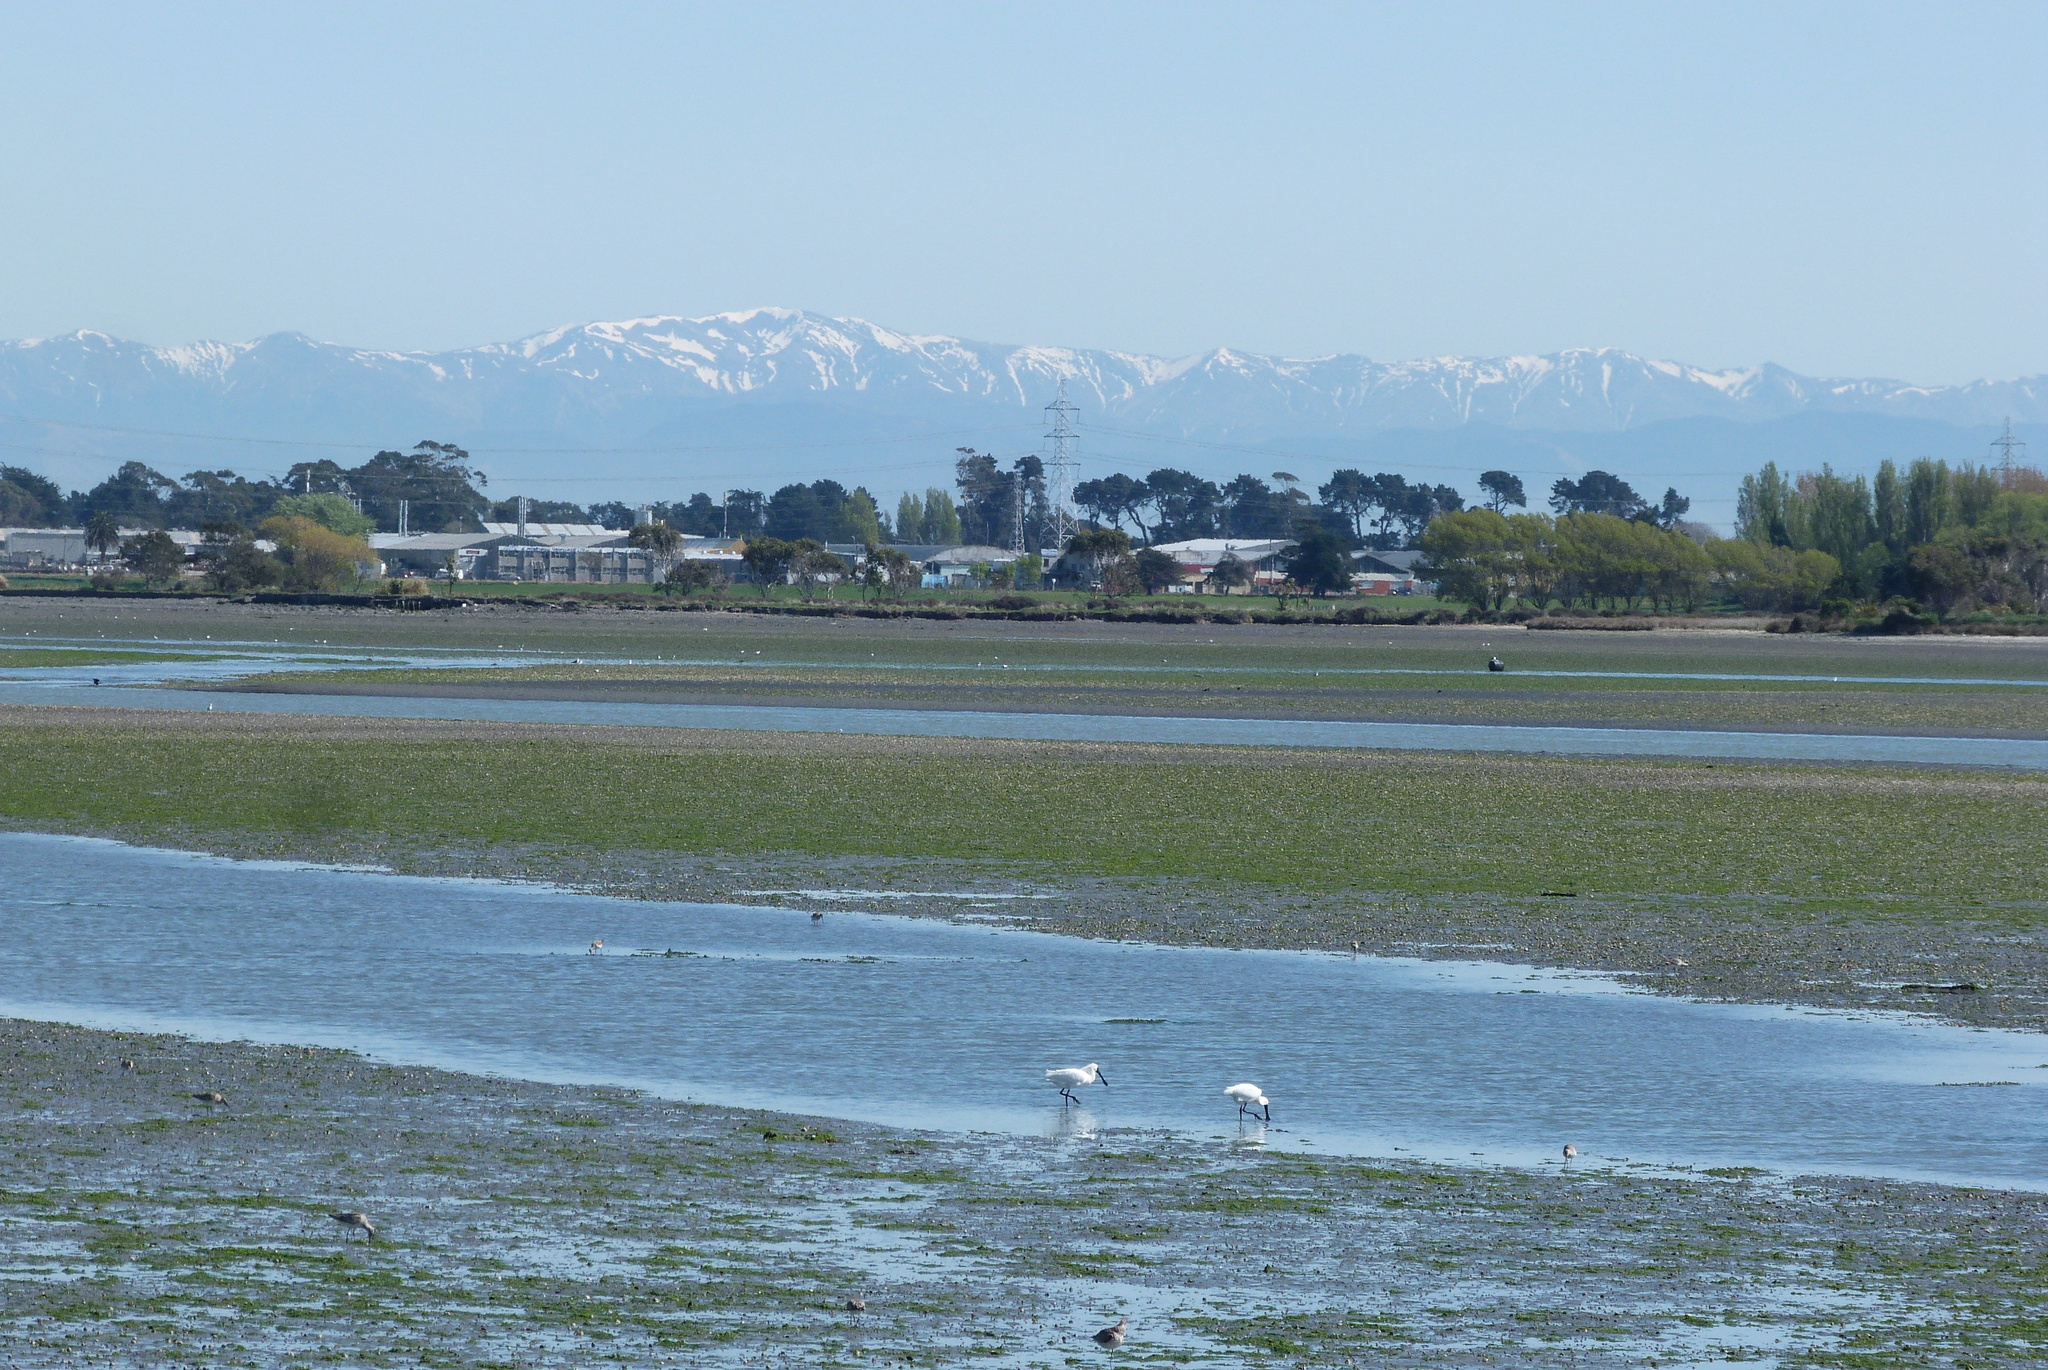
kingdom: Animalia
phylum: Chordata
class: Aves
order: Pelecaniformes
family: Threskiornithidae
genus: Platalea
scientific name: Platalea regia
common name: Royal spoonbill
